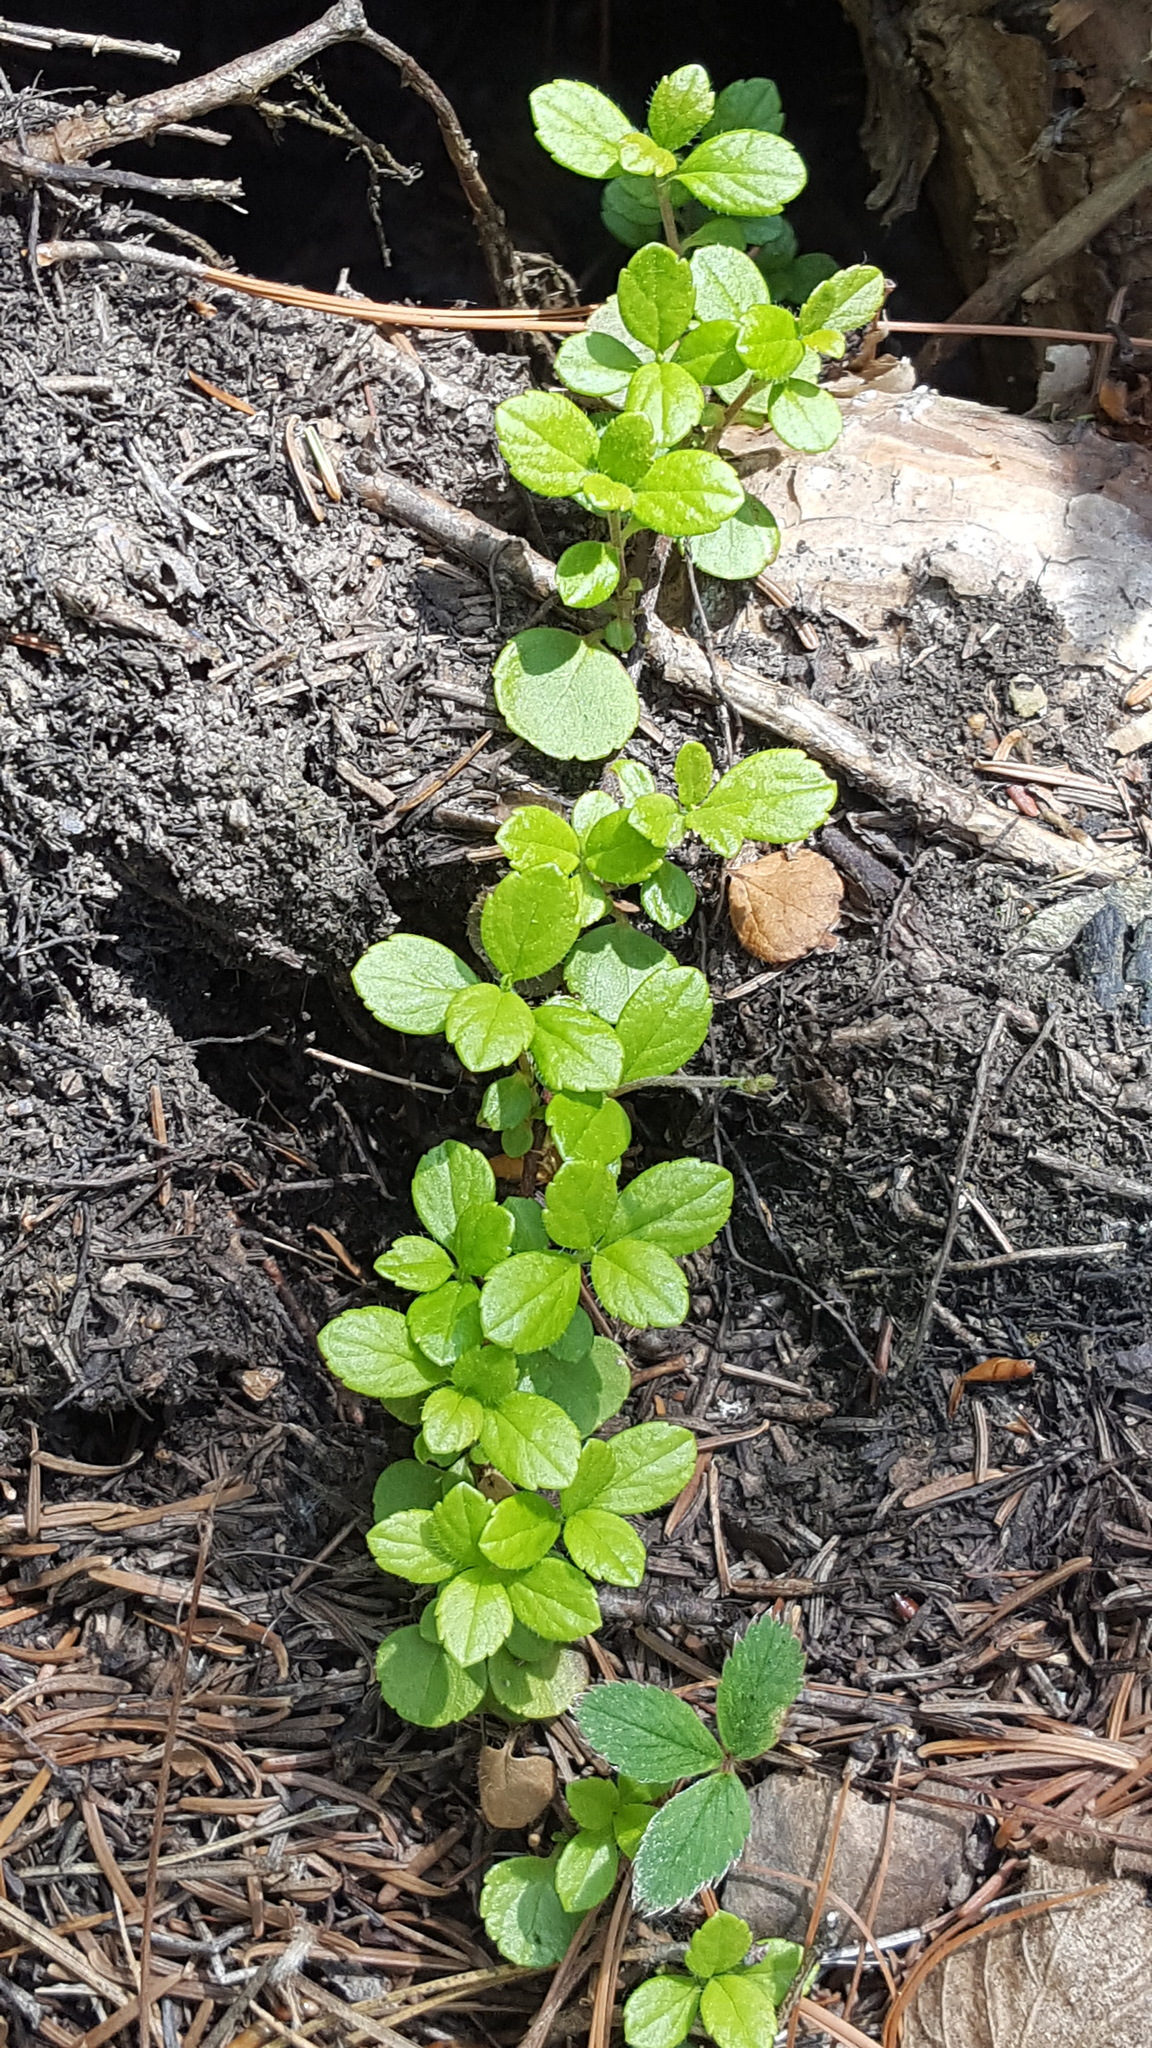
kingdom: Plantae
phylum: Tracheophyta
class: Magnoliopsida
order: Dipsacales
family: Caprifoliaceae
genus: Linnaea
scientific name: Linnaea borealis
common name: Twinflower
